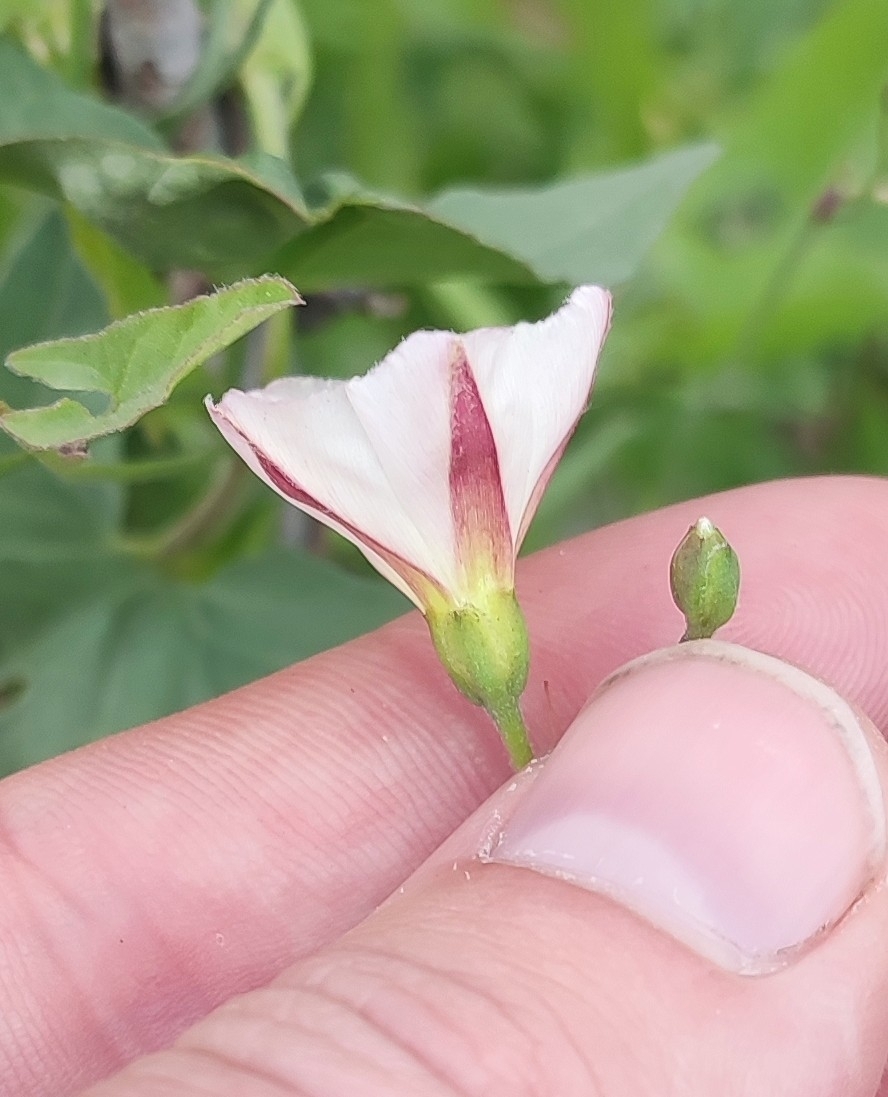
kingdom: Plantae
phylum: Tracheophyta
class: Magnoliopsida
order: Solanales
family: Convolvulaceae
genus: Convolvulus
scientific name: Convolvulus arvensis
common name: Field bindweed
